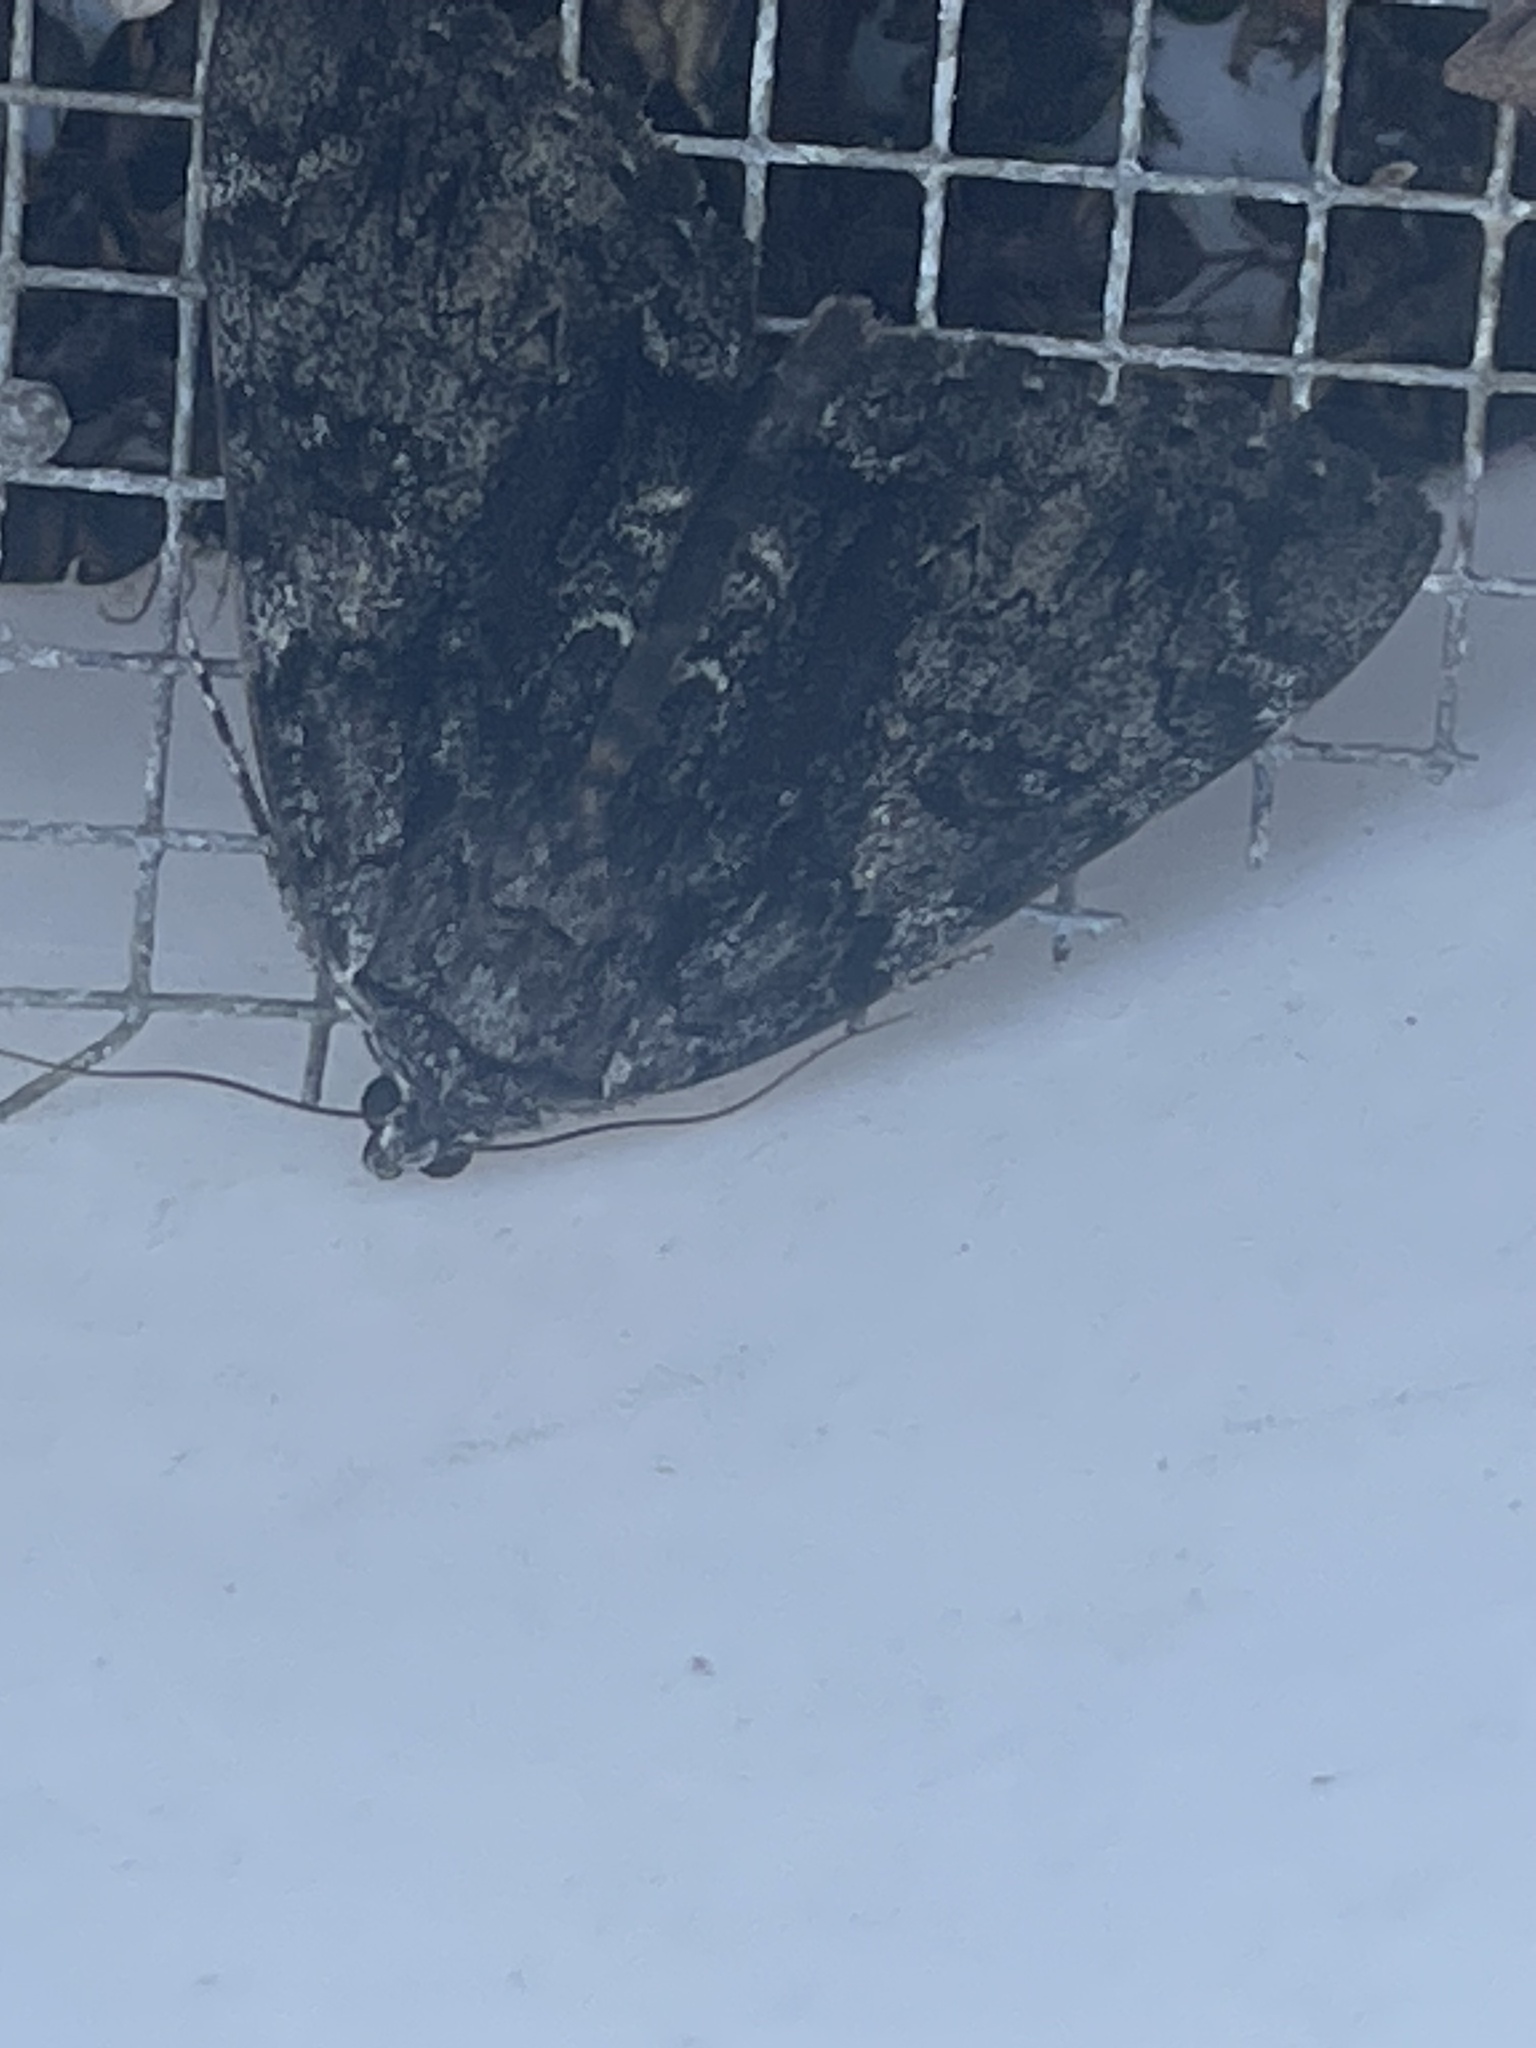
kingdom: Animalia
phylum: Arthropoda
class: Insecta
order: Lepidoptera
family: Erebidae
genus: Catocala
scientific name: Catocala lacrymosa
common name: Tearful underwing
